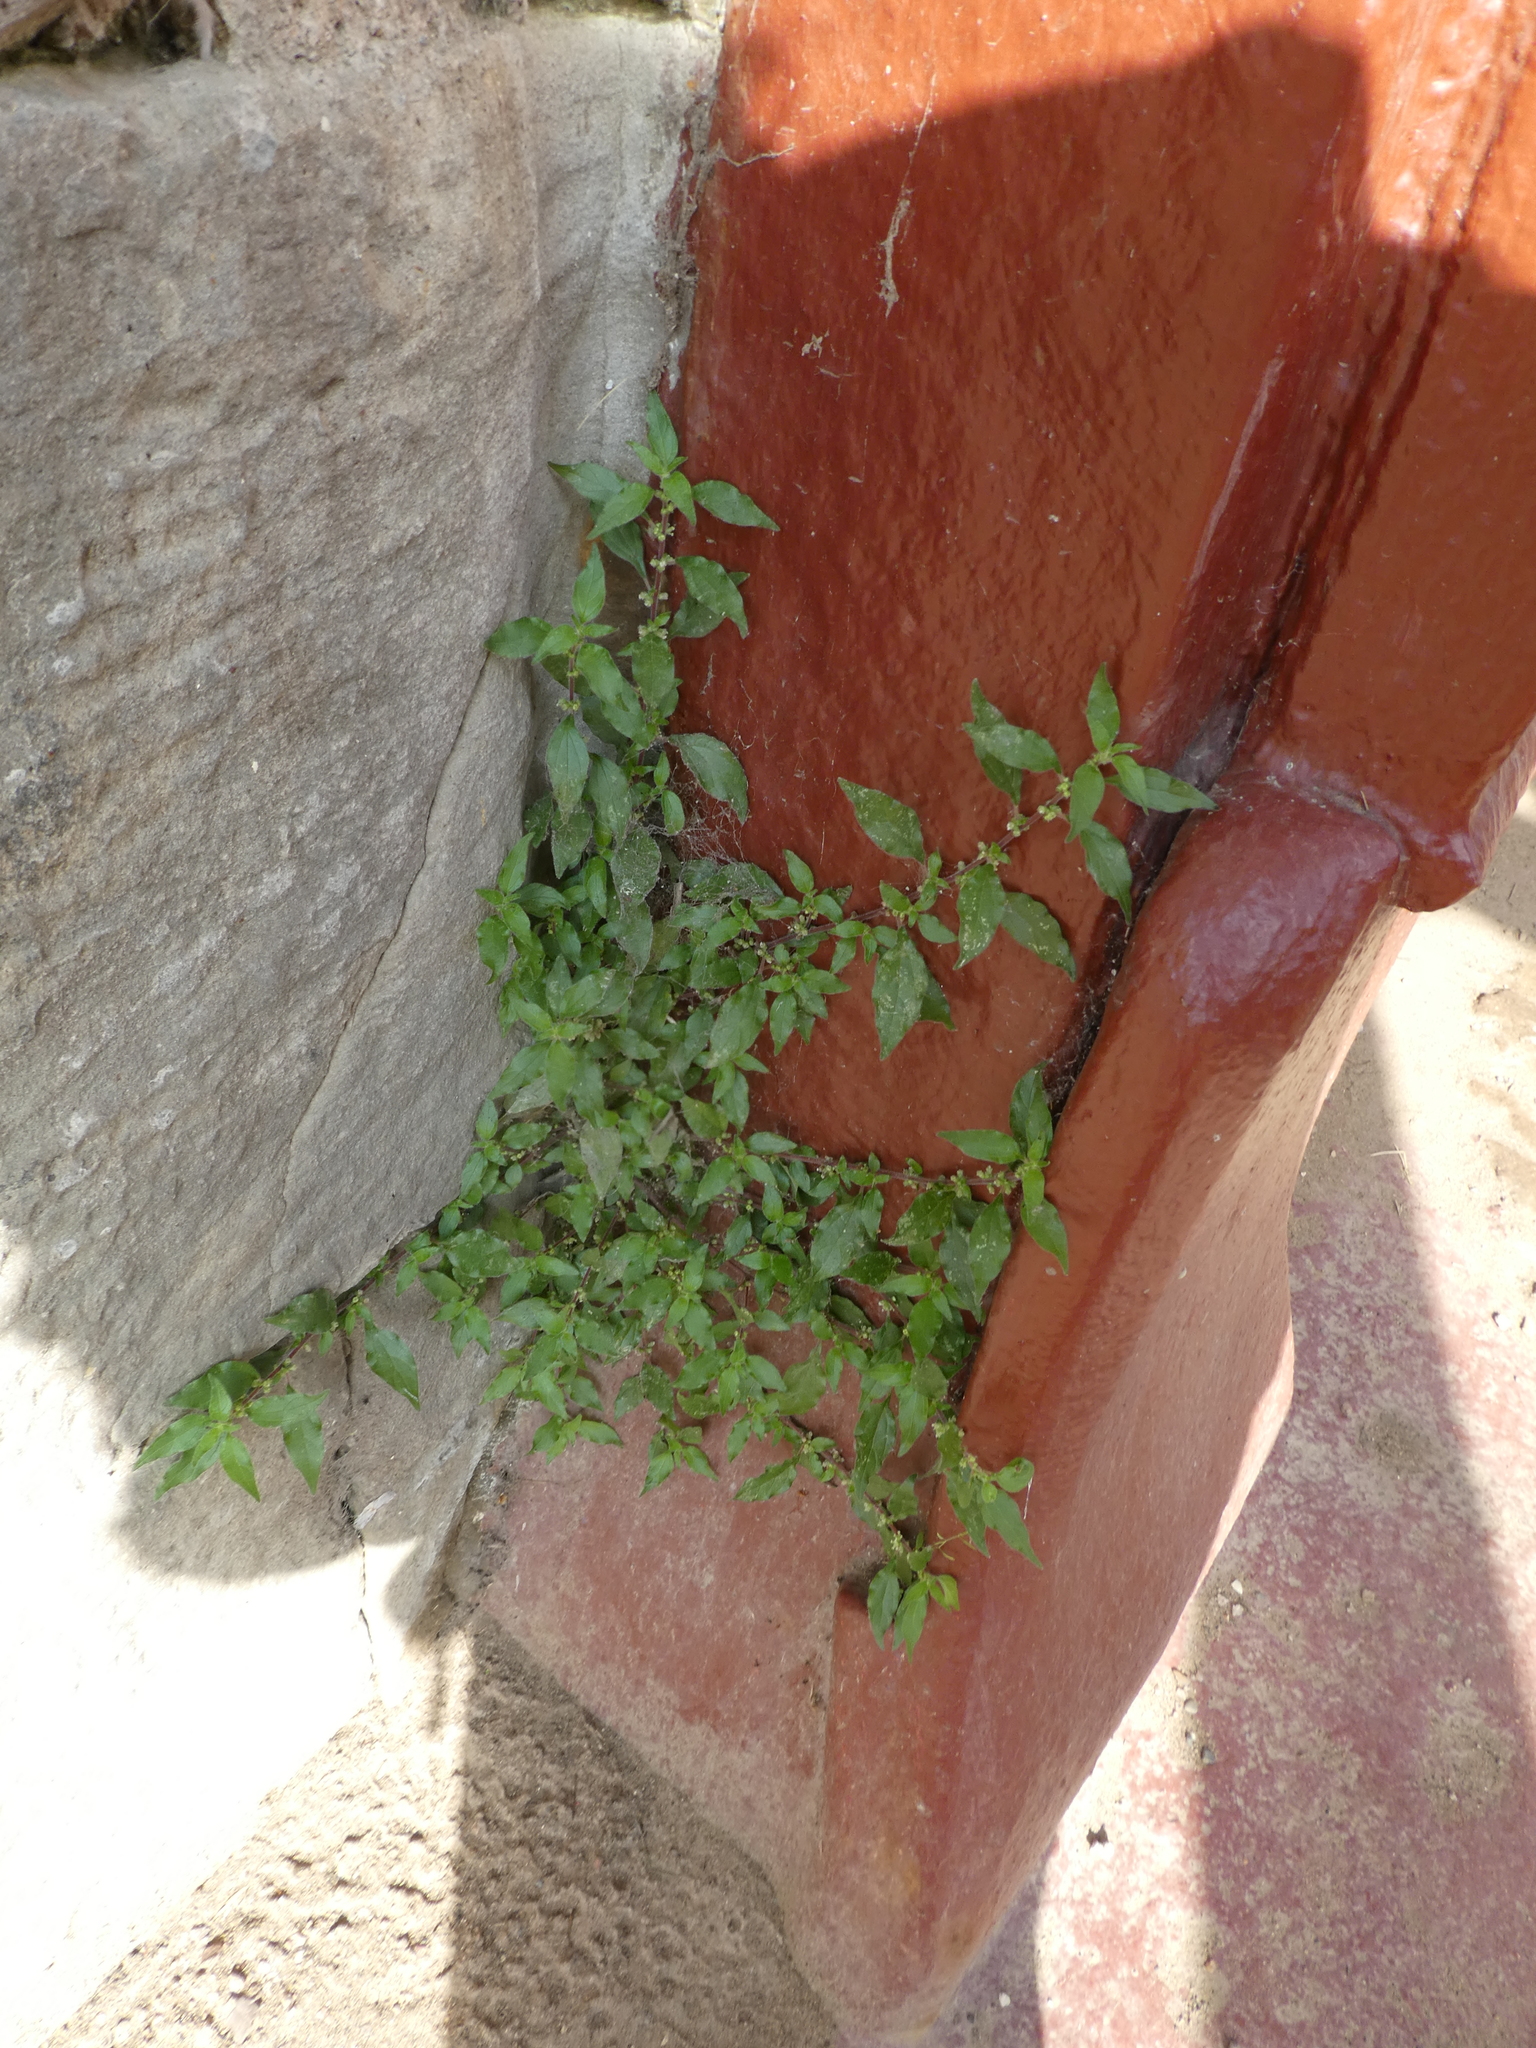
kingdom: Plantae
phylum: Tracheophyta
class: Magnoliopsida
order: Rosales
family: Urticaceae
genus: Parietaria
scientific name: Parietaria judaica
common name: Pellitory-of-the-wall
